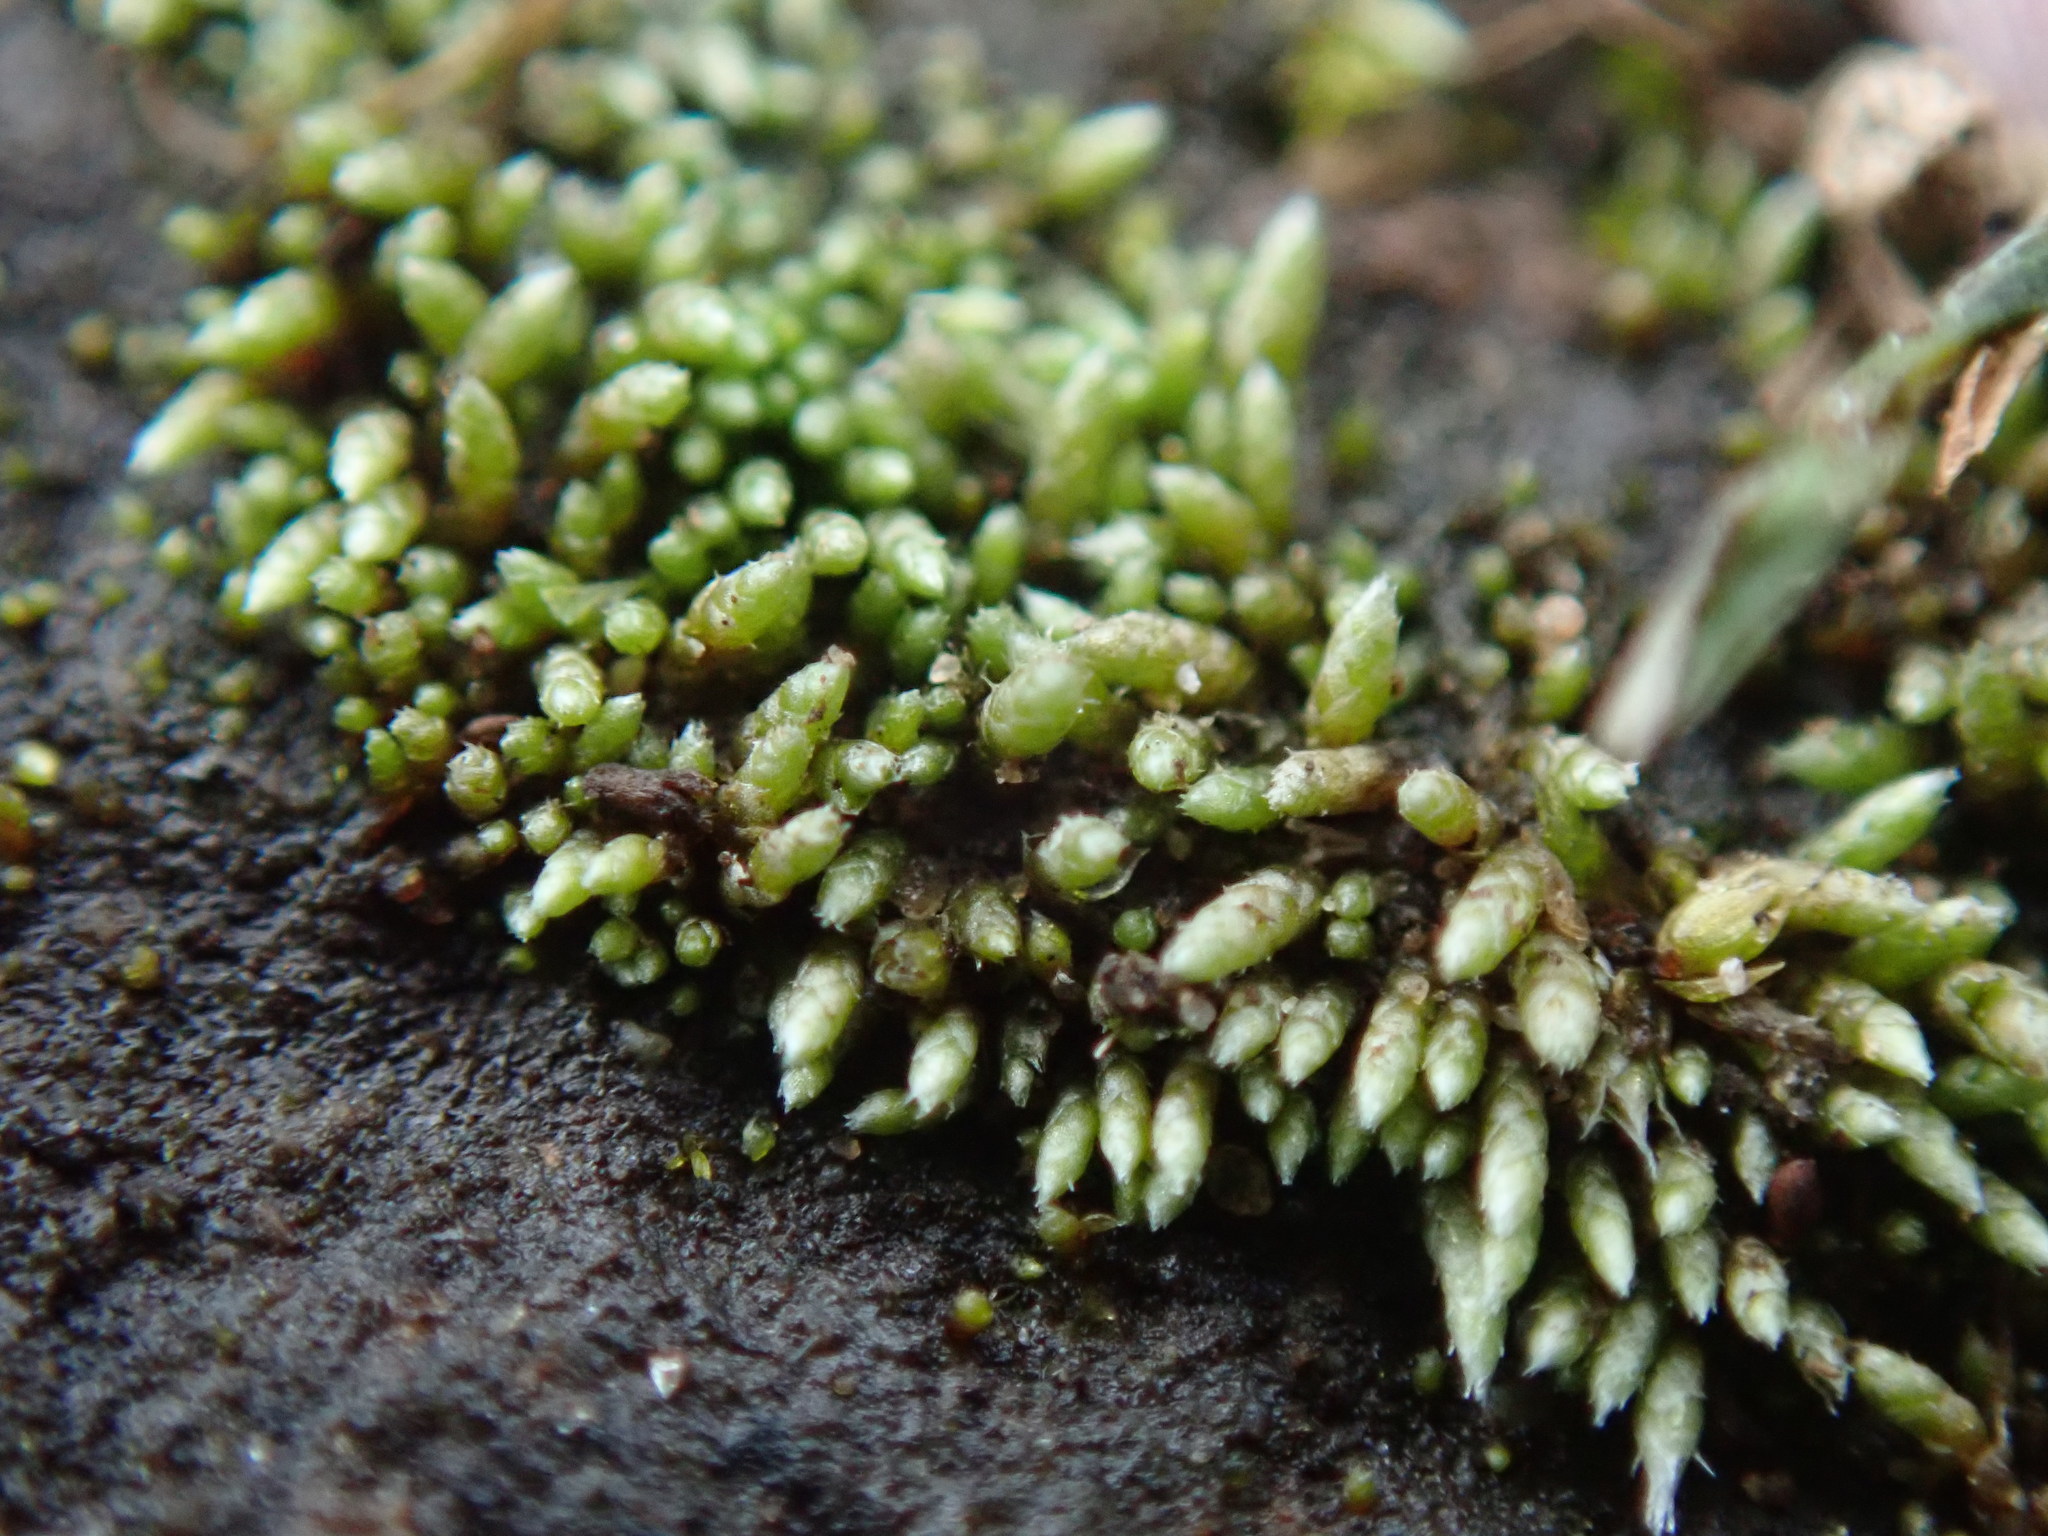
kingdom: Plantae
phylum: Bryophyta
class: Bryopsida
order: Bryales
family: Bryaceae
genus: Bryum
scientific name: Bryum argenteum
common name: Silver-moss
